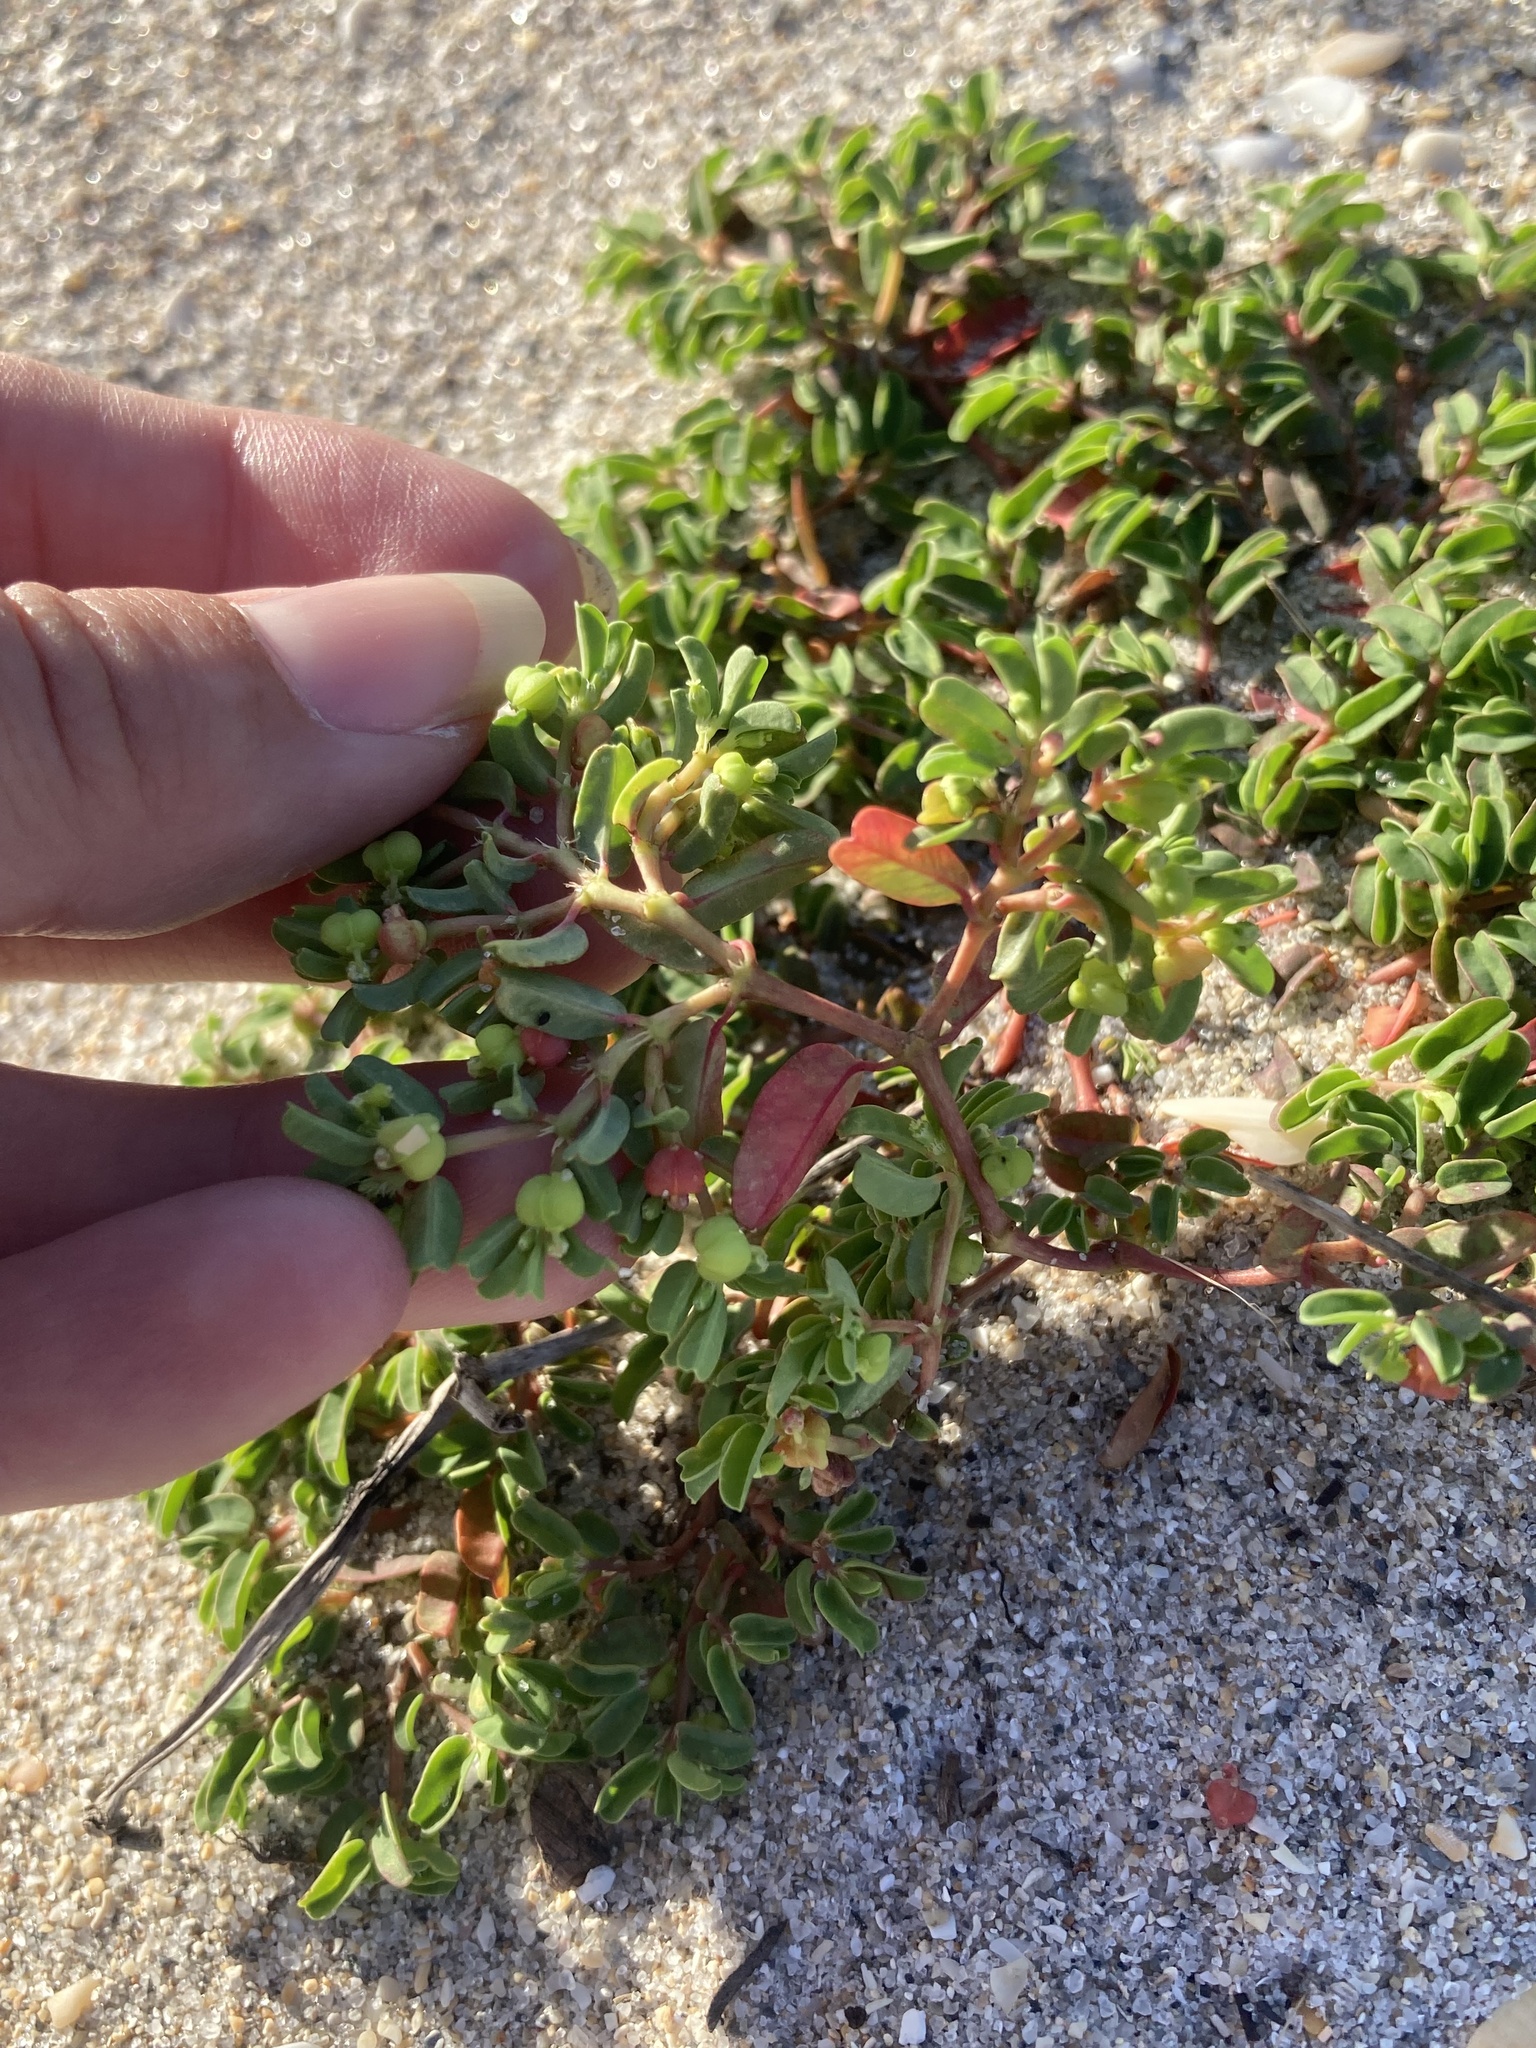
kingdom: Plantae
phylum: Tracheophyta
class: Magnoliopsida
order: Malpighiales
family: Euphorbiaceae
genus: Euphorbia
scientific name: Euphorbia bombensis
